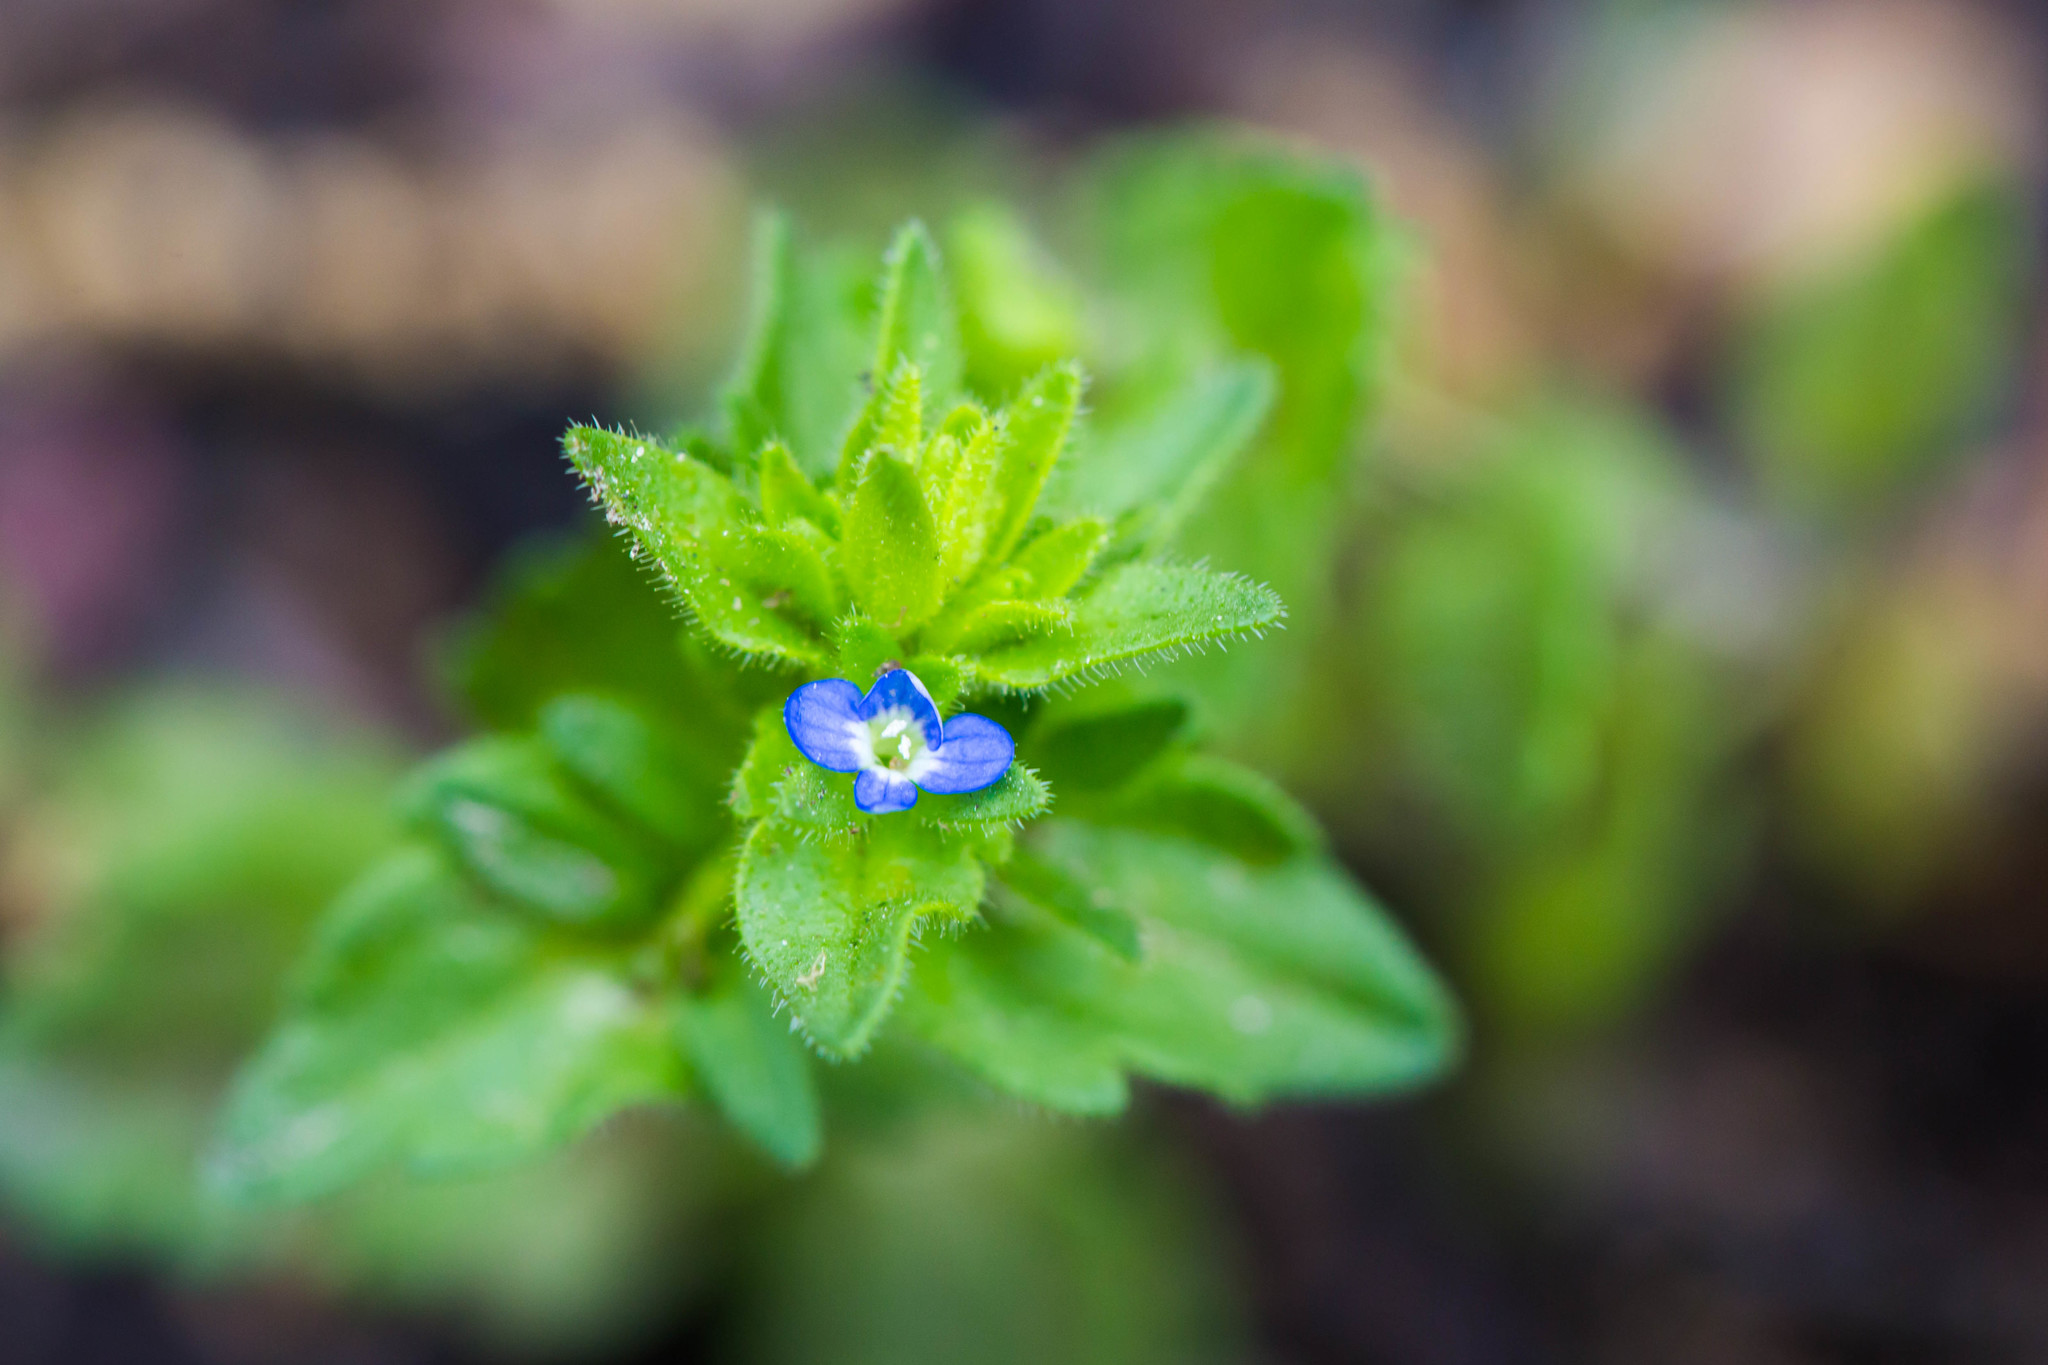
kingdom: Plantae
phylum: Tracheophyta
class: Magnoliopsida
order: Lamiales
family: Plantaginaceae
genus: Veronica
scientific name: Veronica arvensis
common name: Corn speedwell
